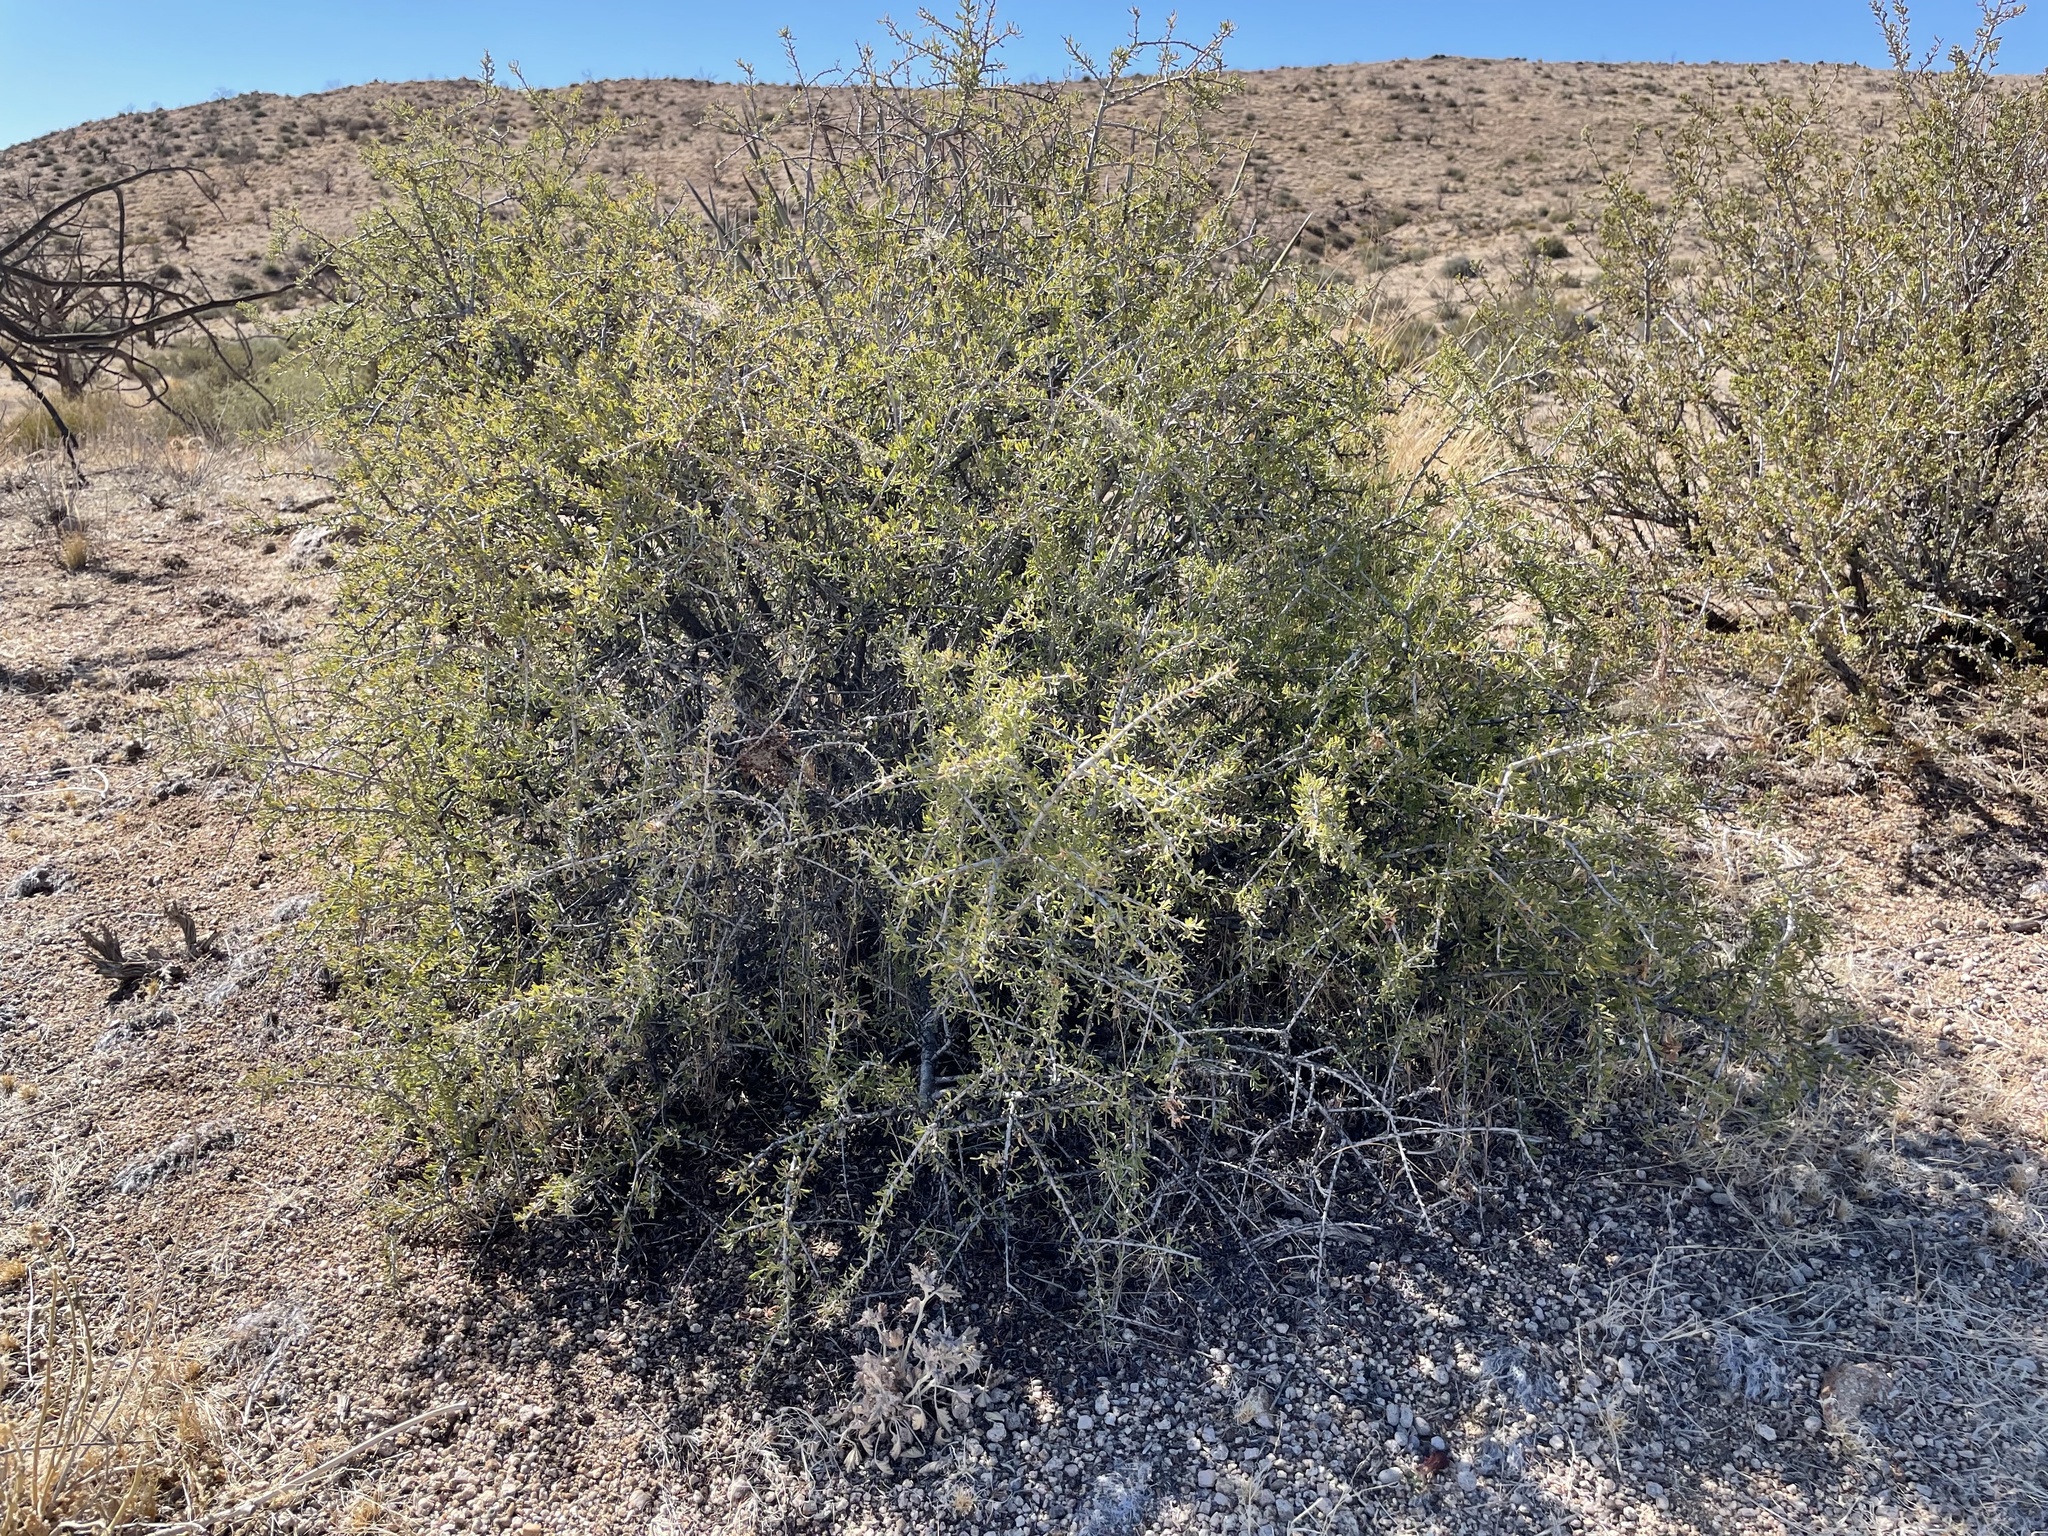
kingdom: Plantae
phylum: Tracheophyta
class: Magnoliopsida
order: Rosales
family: Rosaceae
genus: Prunus
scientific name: Prunus fasciculata
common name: Desert almond
